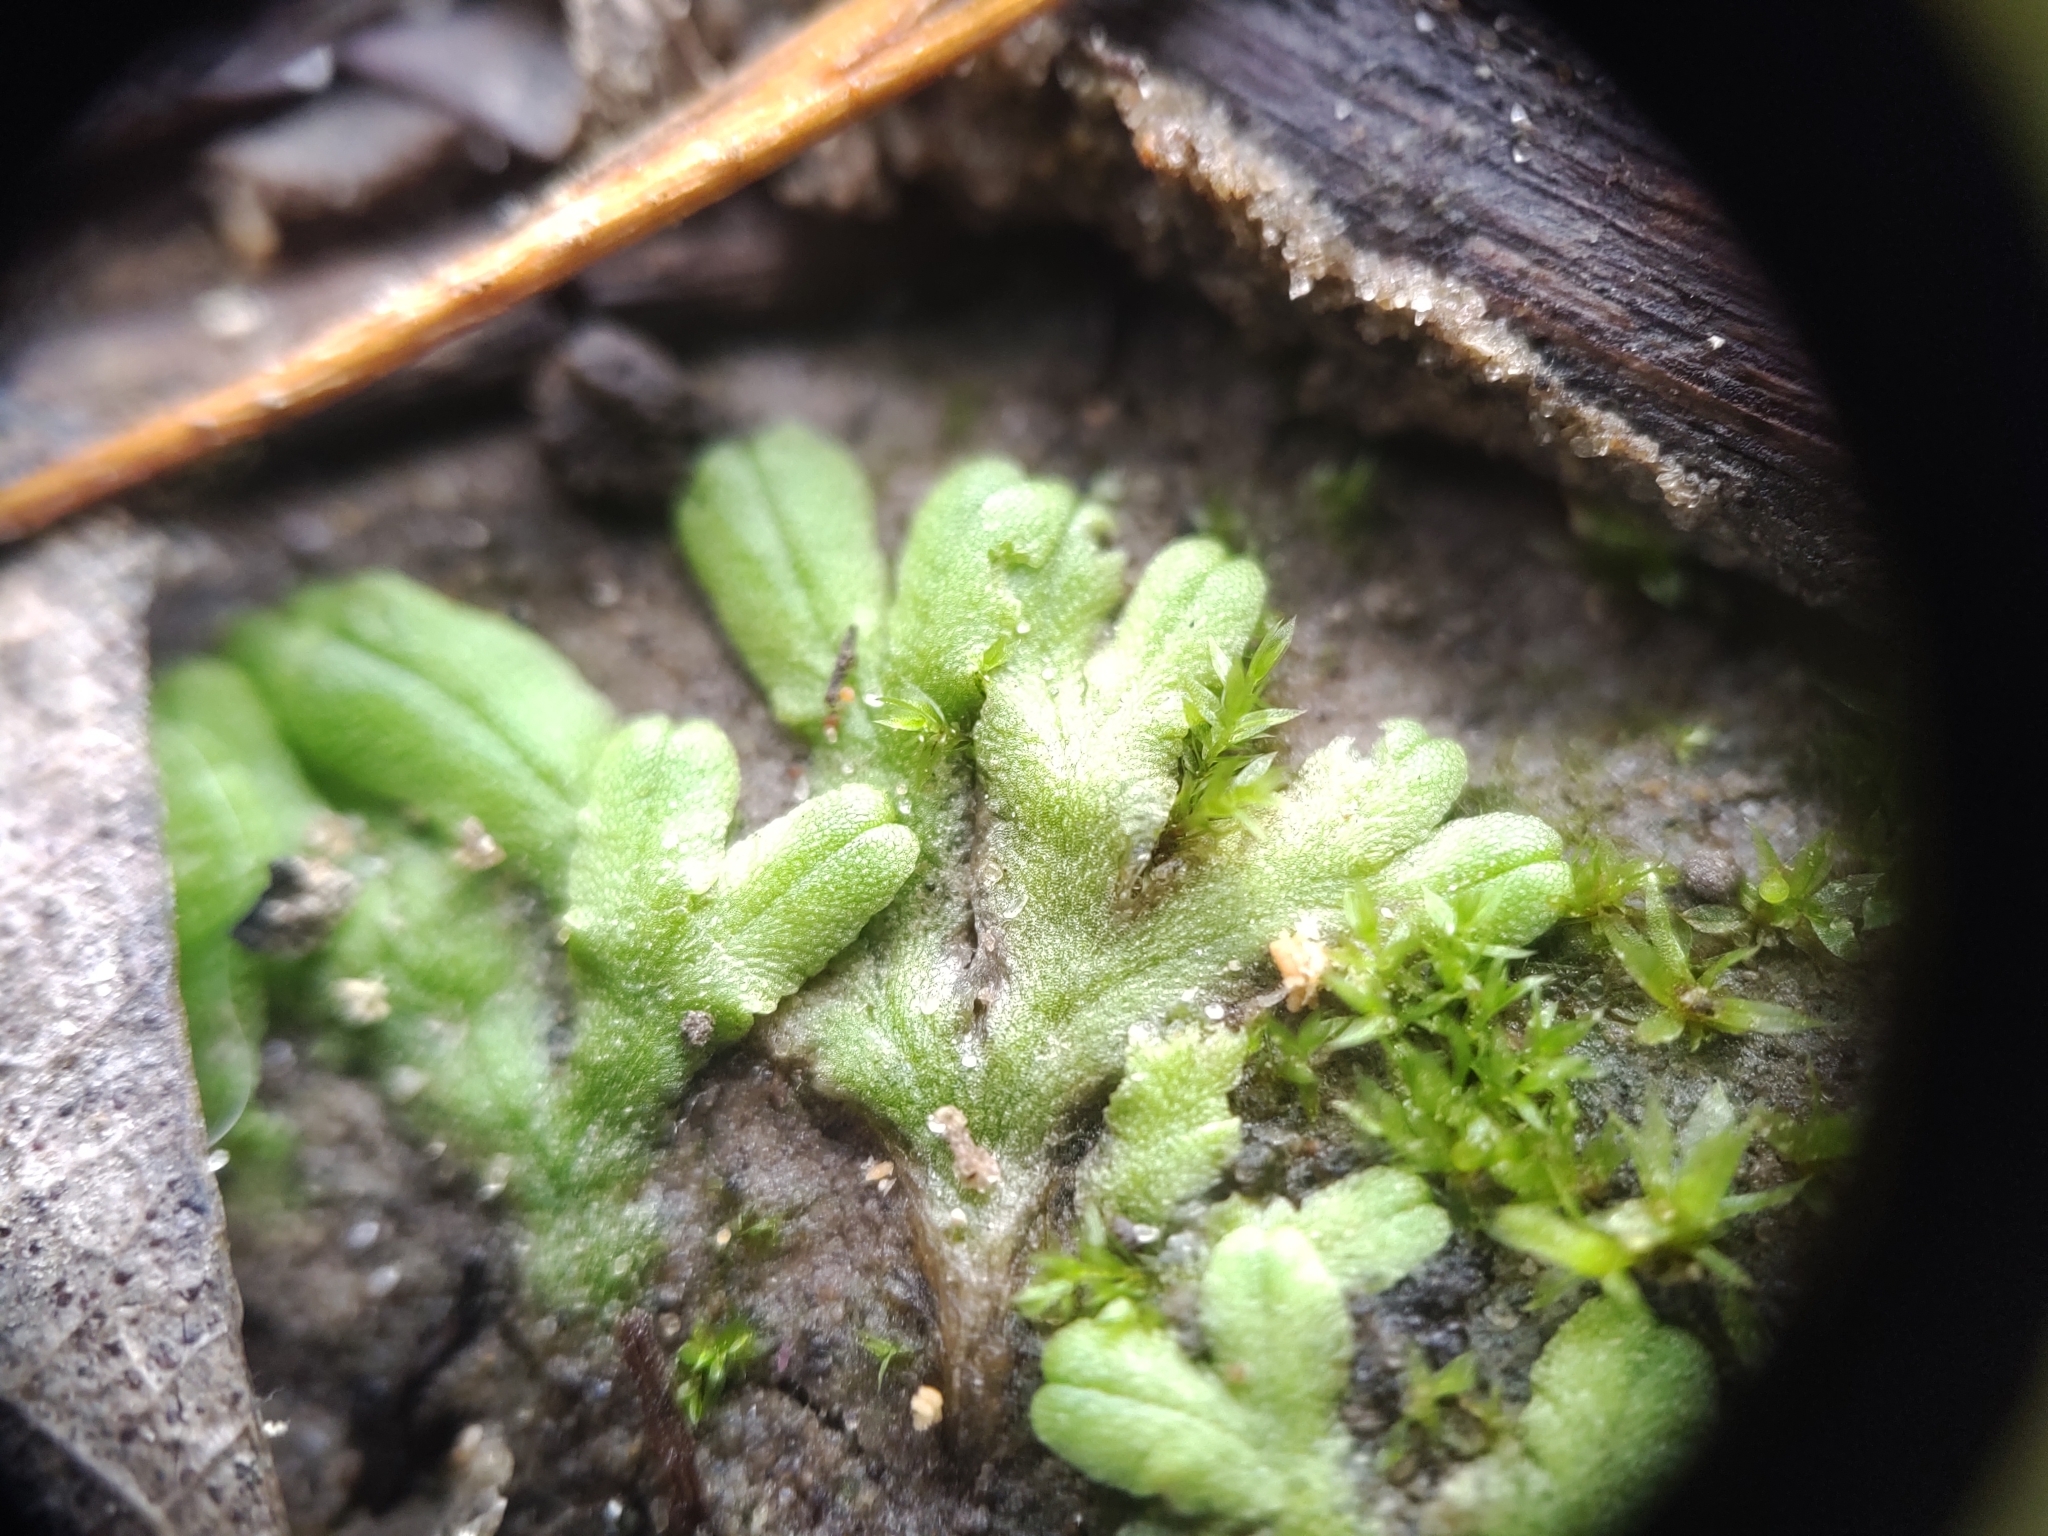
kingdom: Plantae
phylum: Marchantiophyta
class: Marchantiopsida
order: Marchantiales
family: Ricciaceae
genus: Ricciocarpos
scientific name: Ricciocarpos natans
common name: Purple-fringed liverwort
